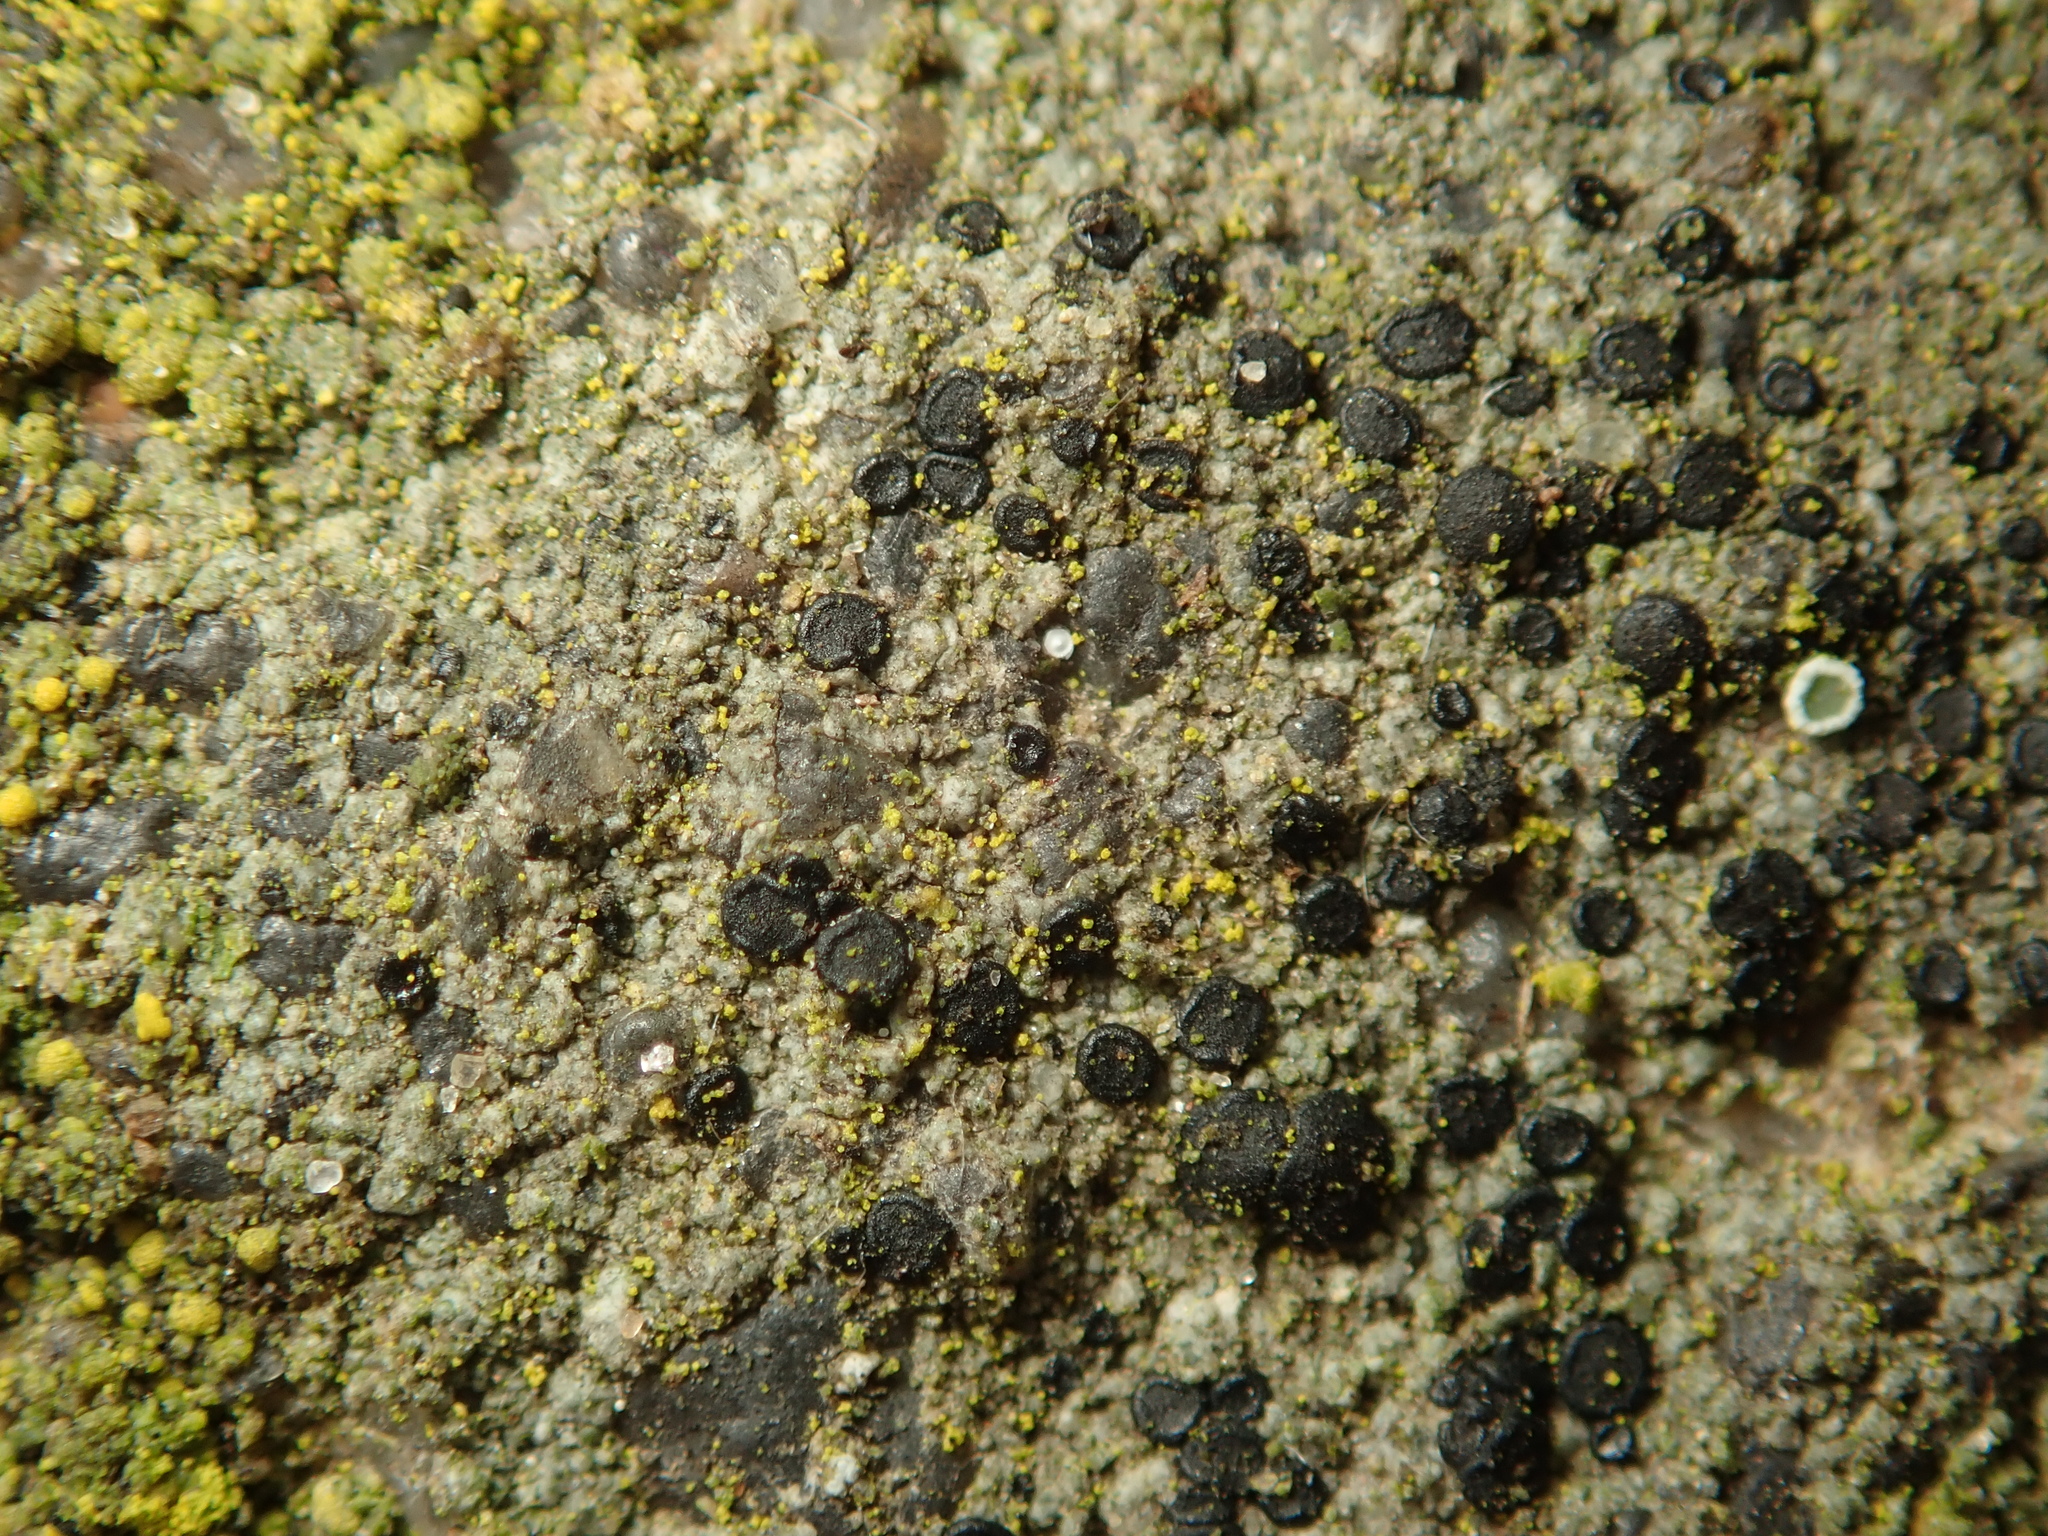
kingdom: Fungi
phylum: Ascomycota
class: Lecanoromycetes
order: Lecanorales
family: Lecanoraceae
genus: Lecidella
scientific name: Lecidella stigmatea
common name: Limestone disc lichen
